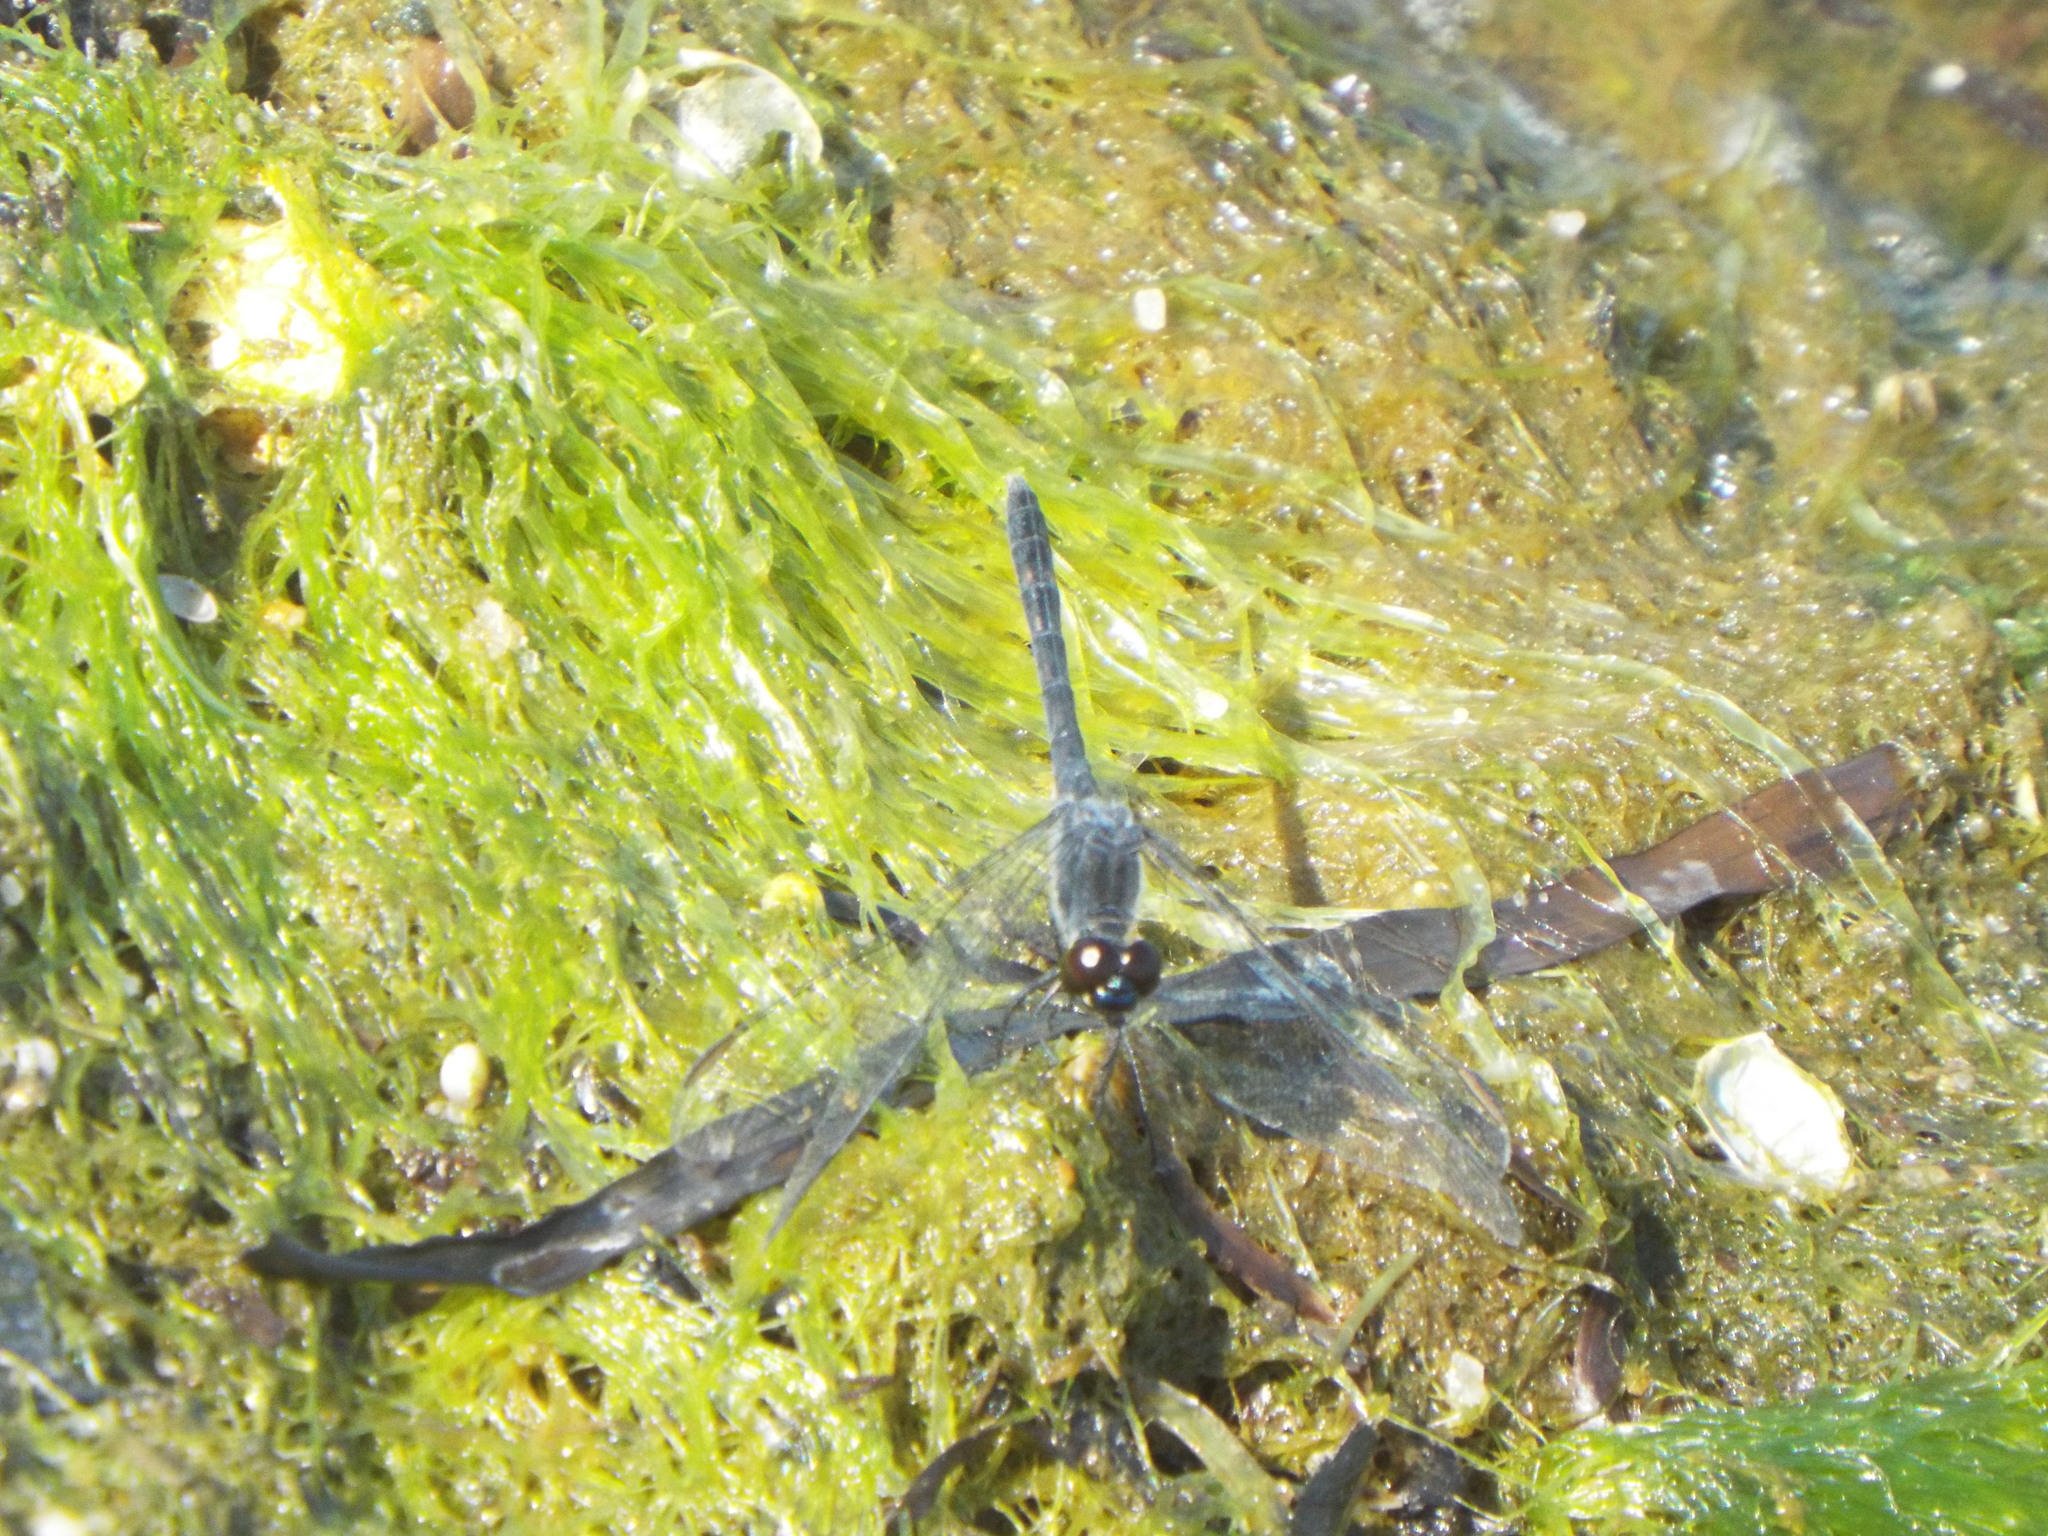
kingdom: Animalia
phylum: Arthropoda
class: Insecta
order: Odonata
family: Libellulidae
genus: Erythrodiplax
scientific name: Erythrodiplax berenice
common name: Seaside dragonlet
